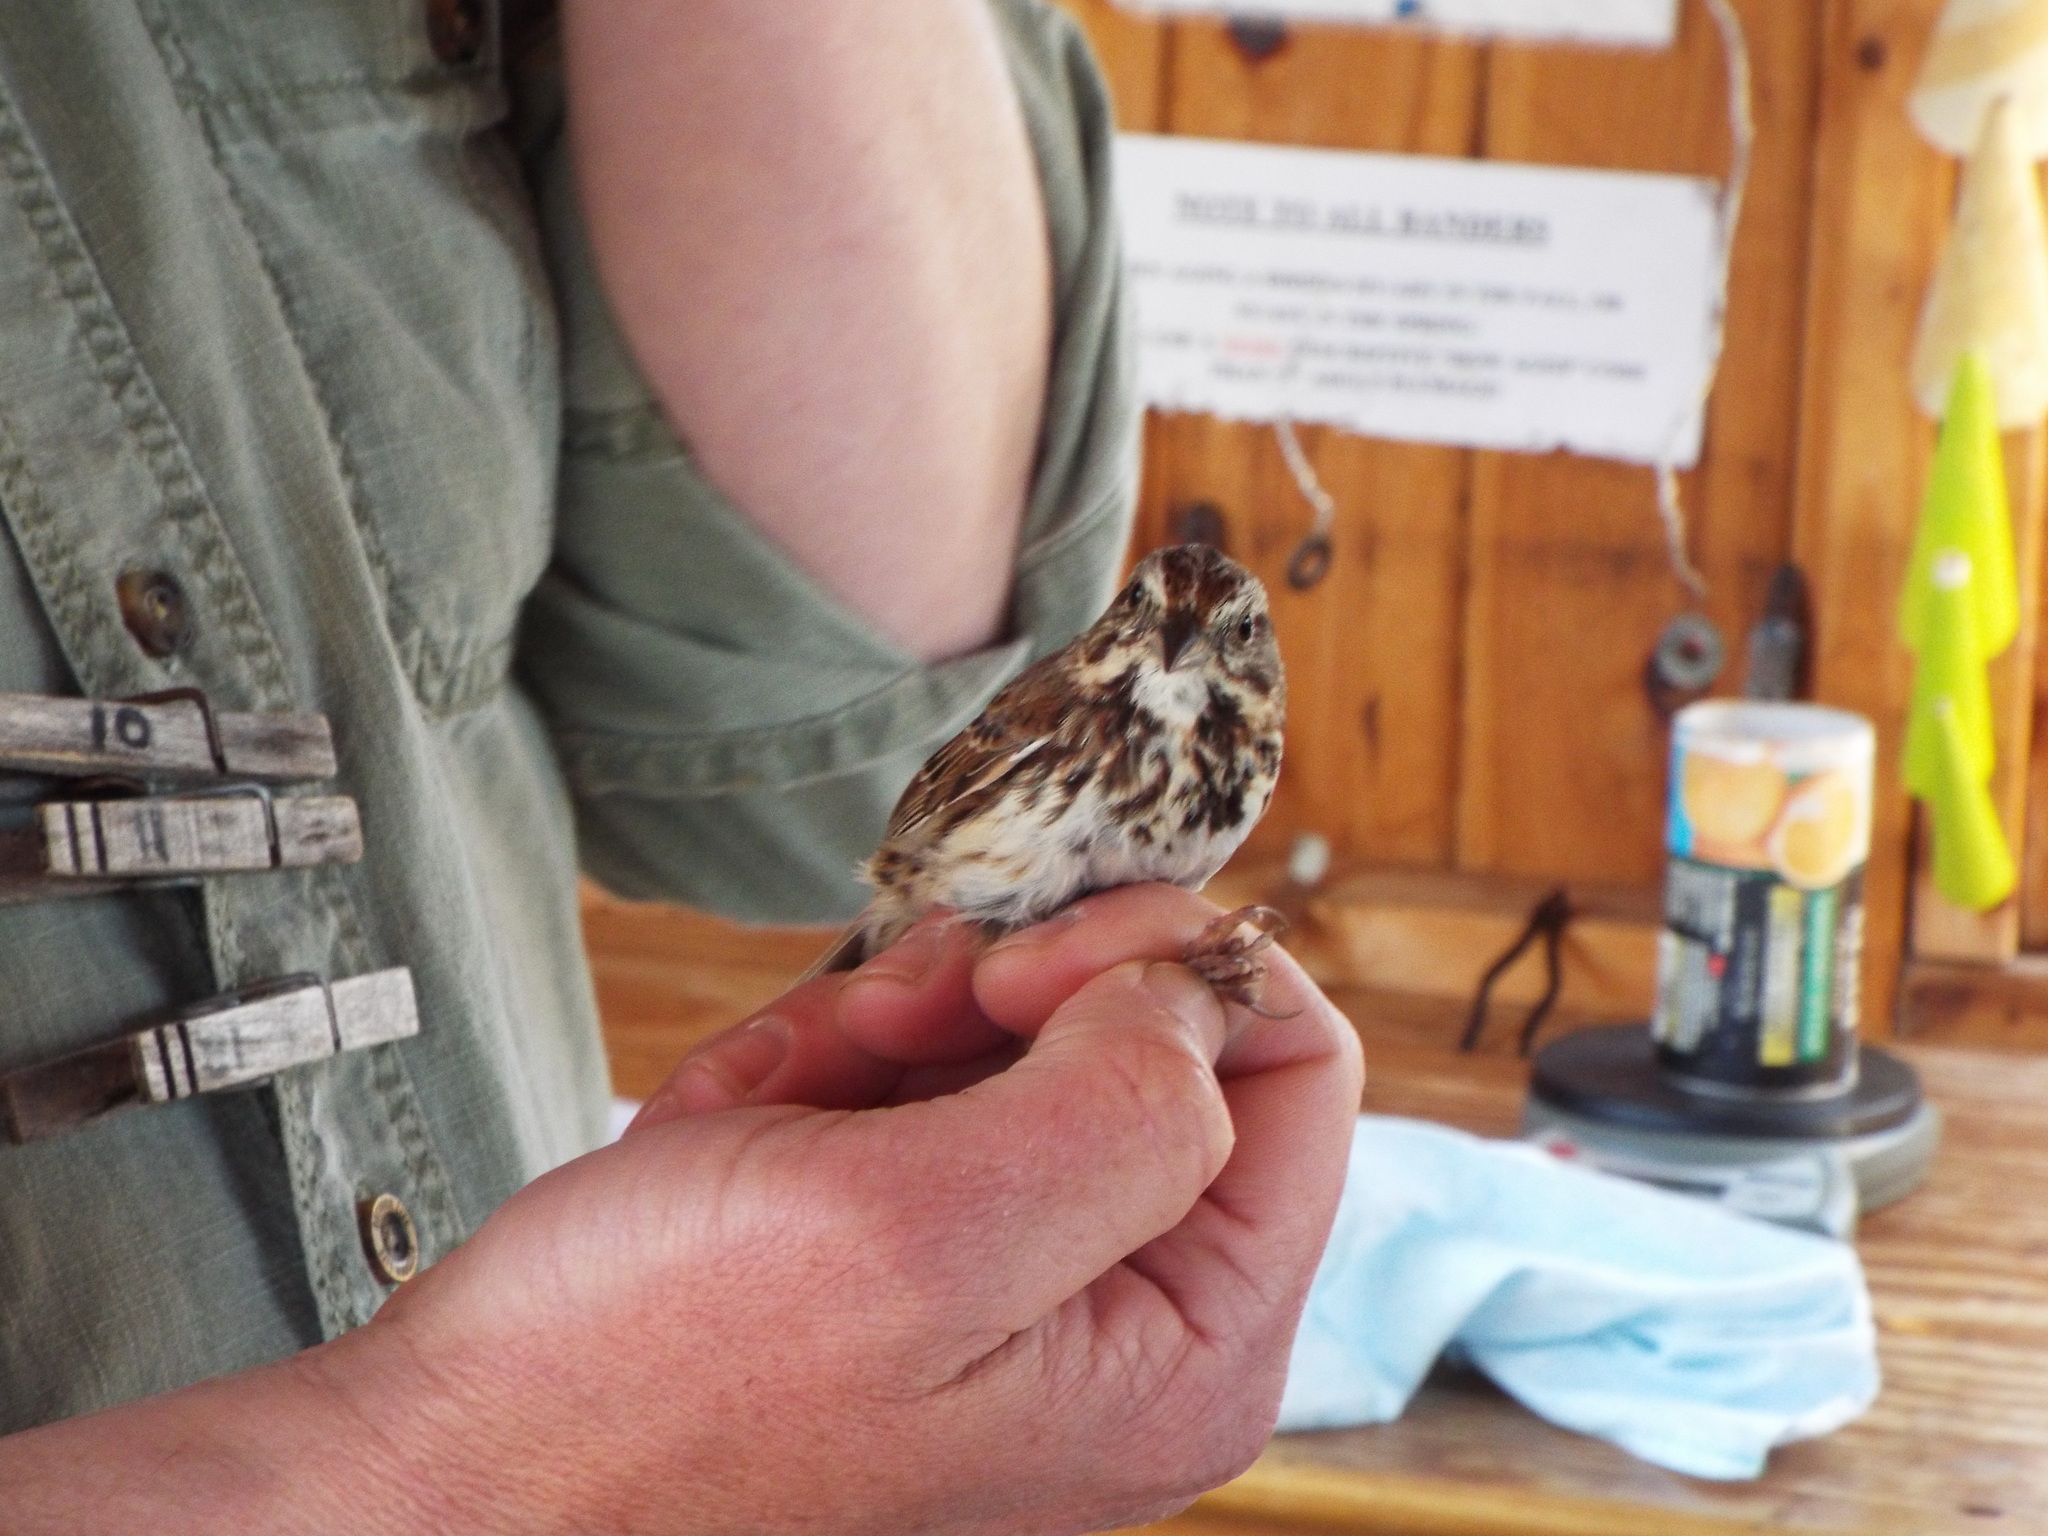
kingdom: Animalia
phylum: Chordata
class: Aves
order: Passeriformes
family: Passerellidae
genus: Melospiza
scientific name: Melospiza melodia
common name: Song sparrow
